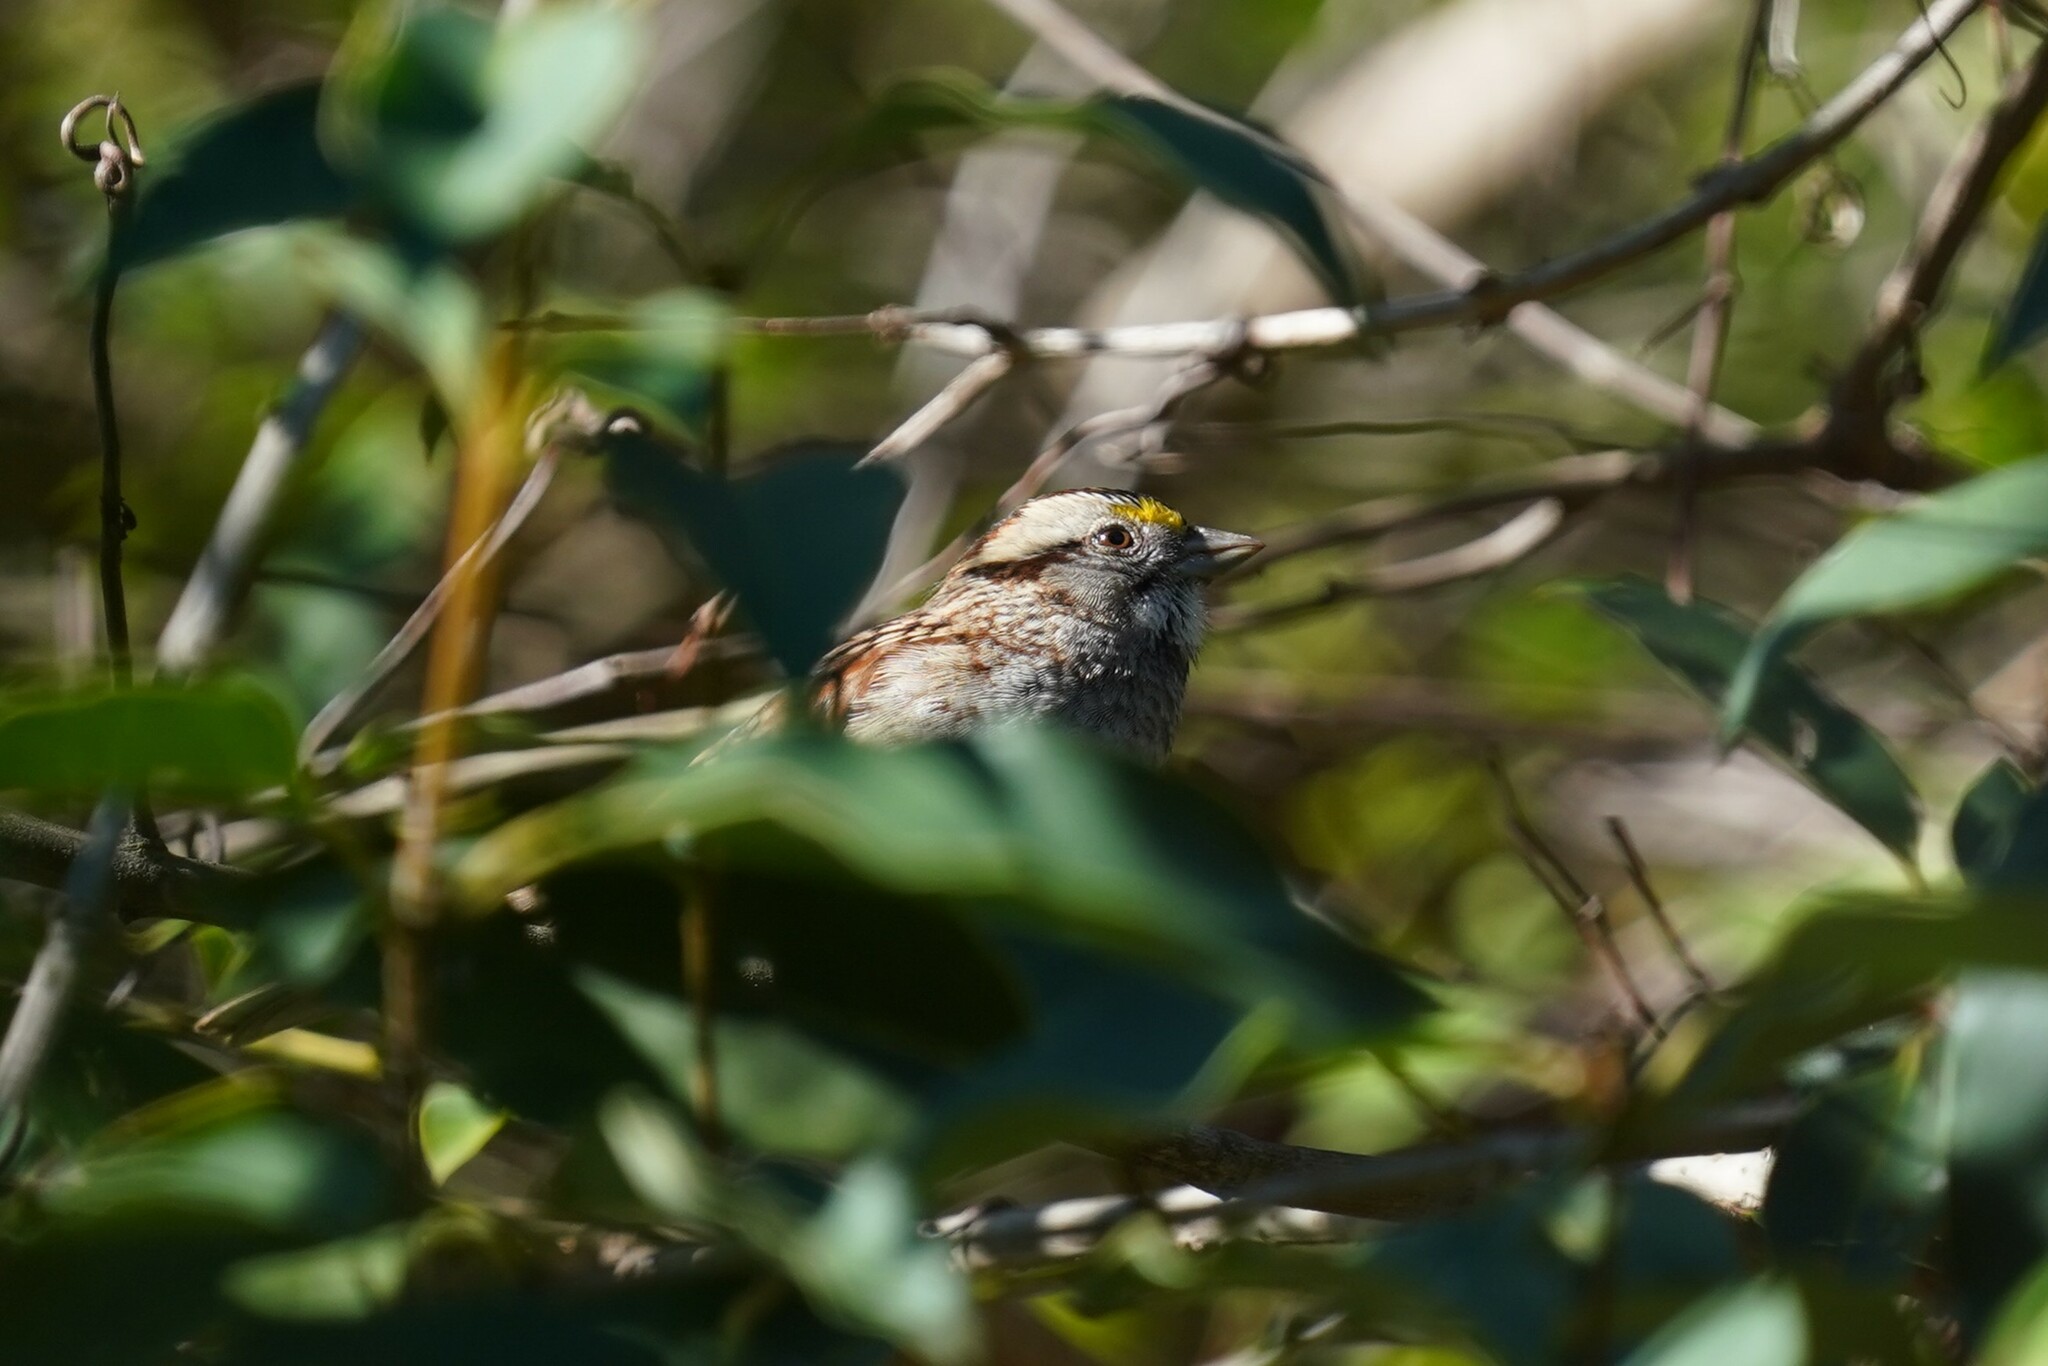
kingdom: Animalia
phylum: Chordata
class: Aves
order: Passeriformes
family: Passerellidae
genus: Zonotrichia
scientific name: Zonotrichia albicollis
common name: White-throated sparrow
